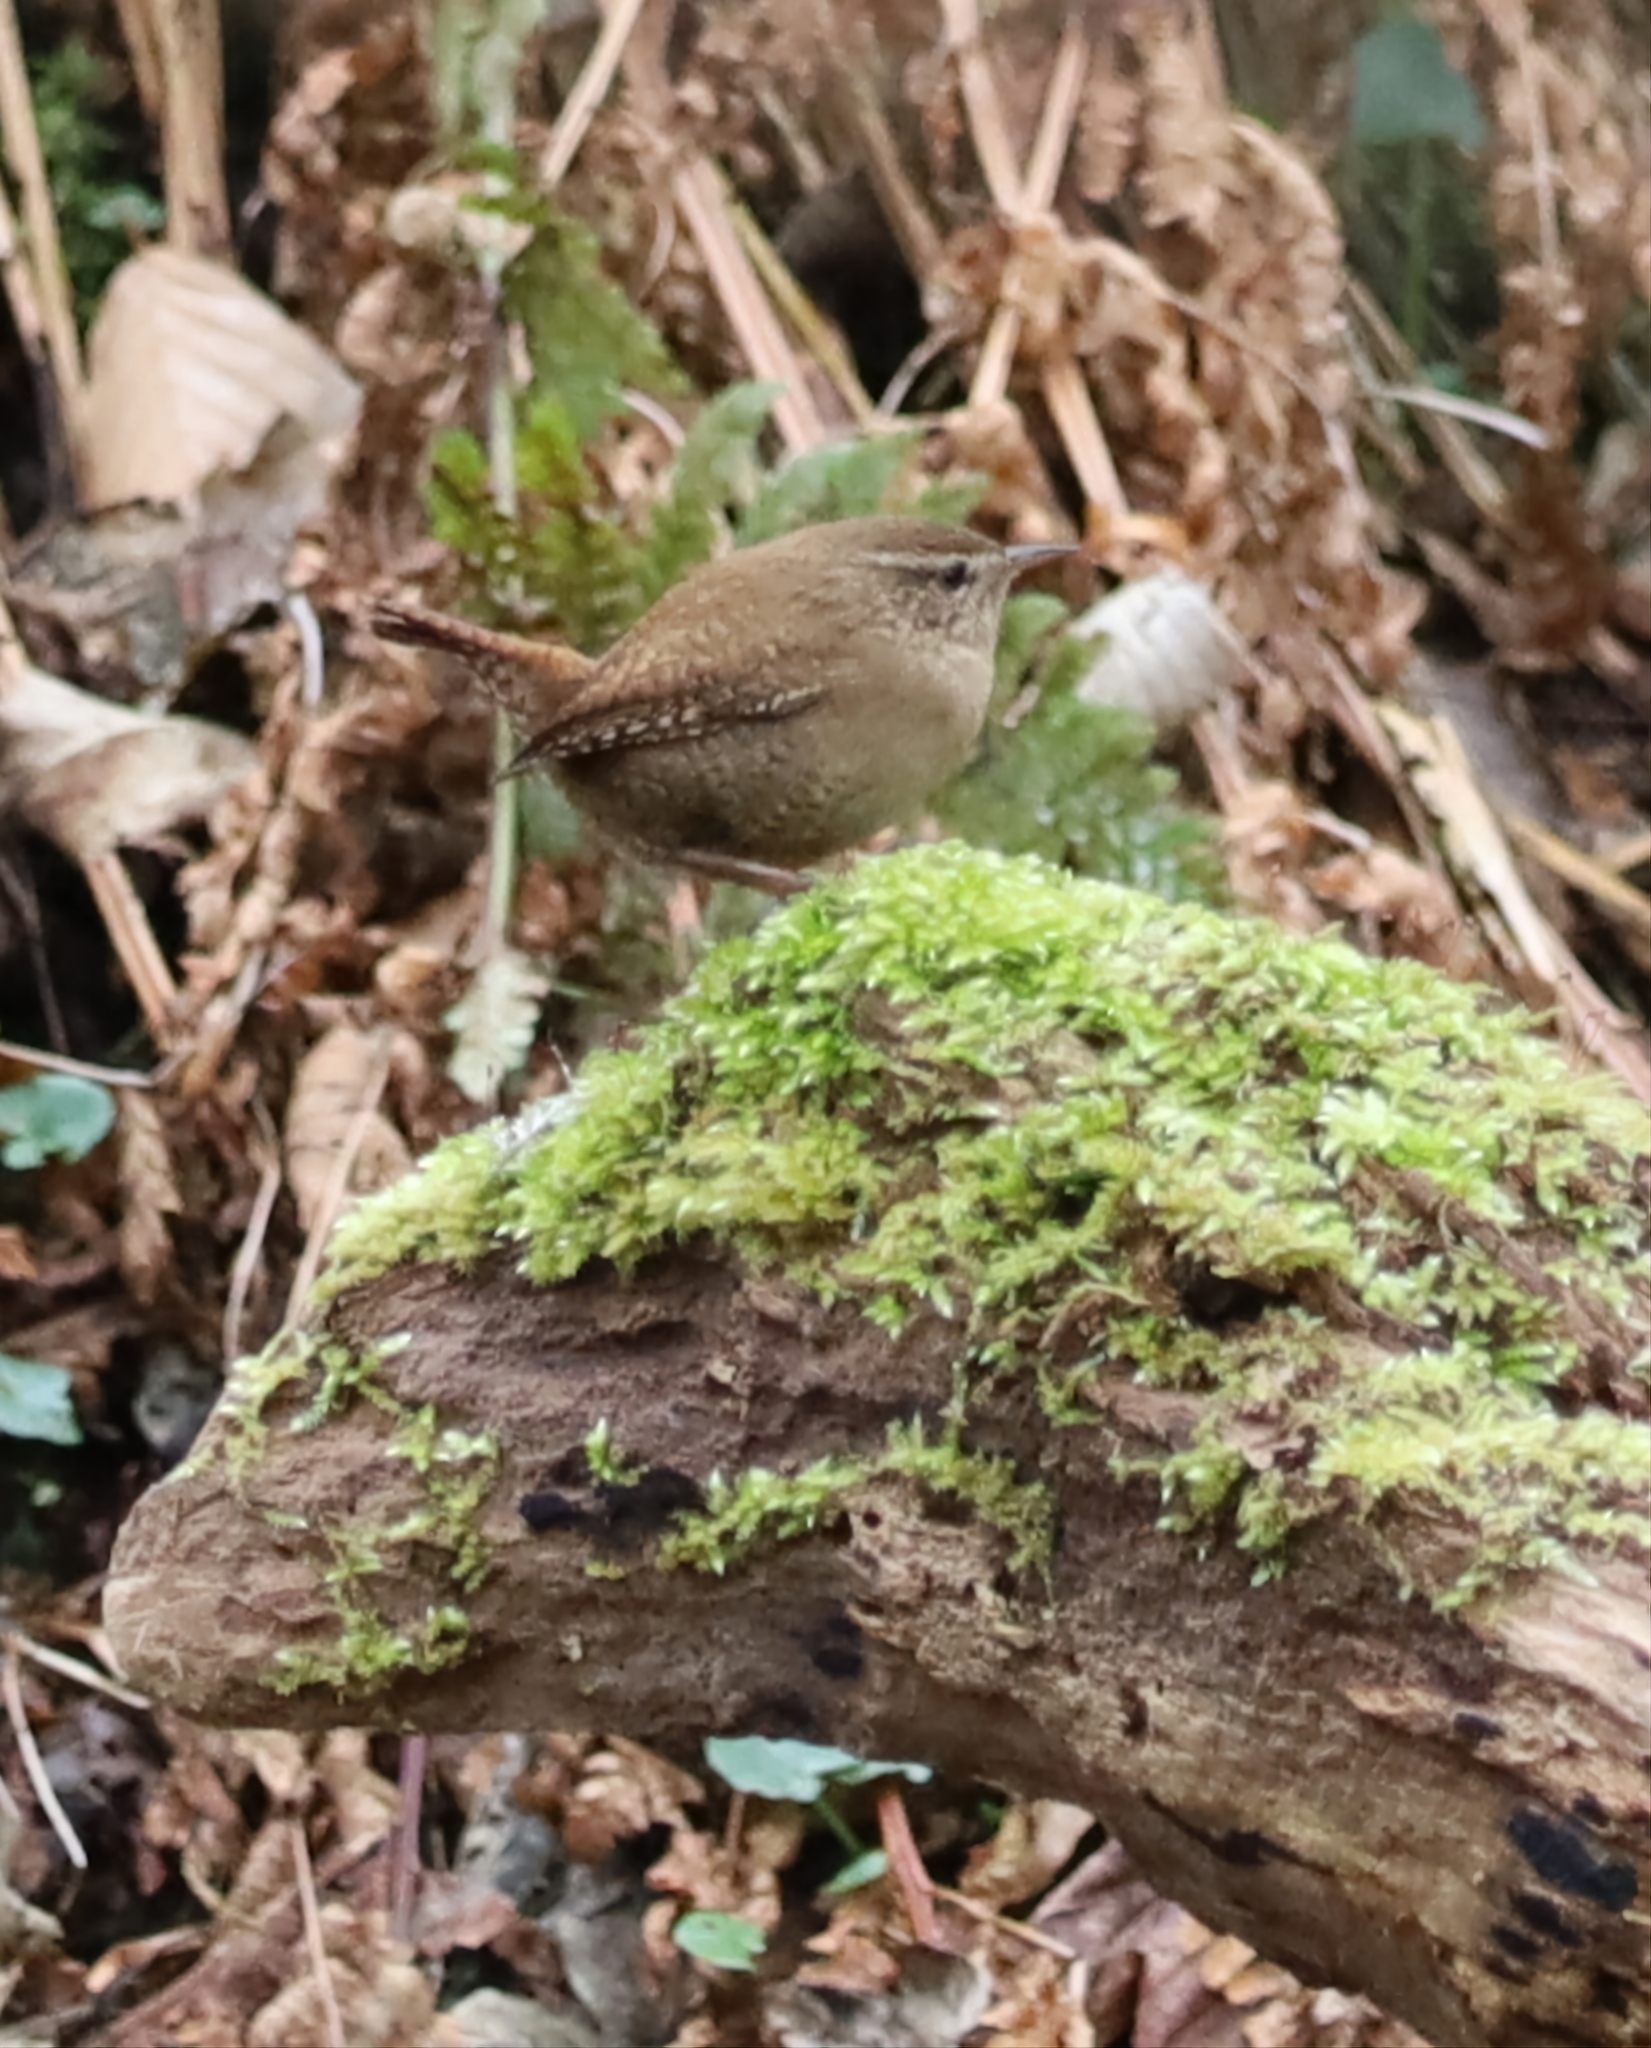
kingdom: Animalia
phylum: Chordata
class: Aves
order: Passeriformes
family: Troglodytidae
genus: Troglodytes
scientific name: Troglodytes troglodytes
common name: Eurasian wren
